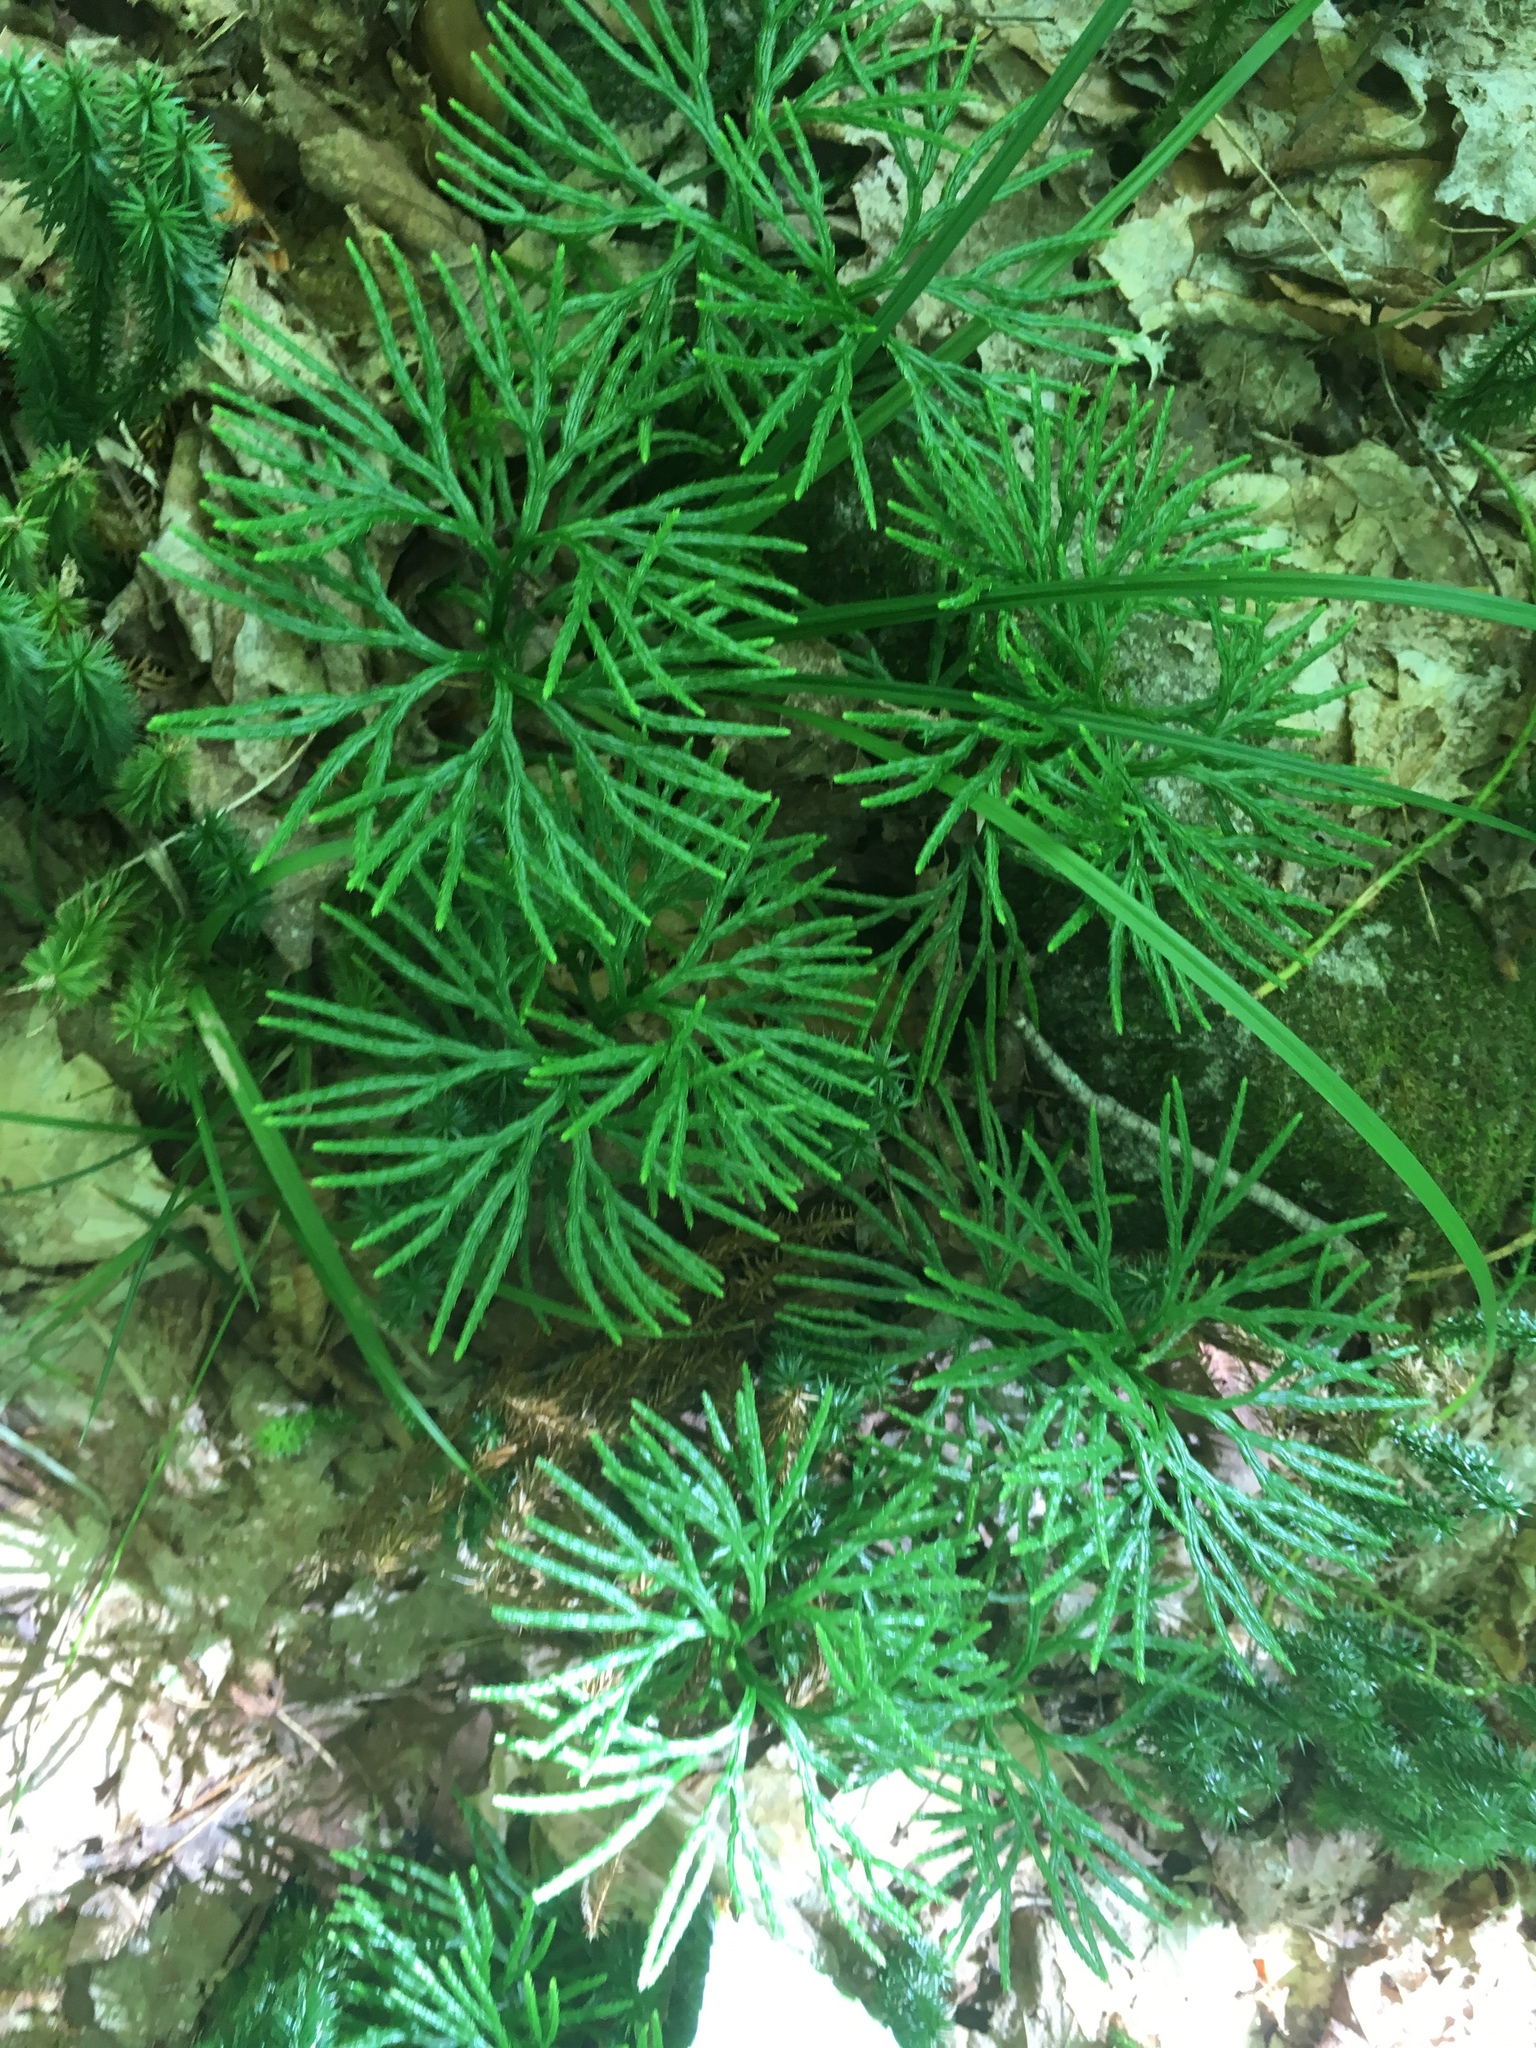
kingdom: Plantae
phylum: Tracheophyta
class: Lycopodiopsida
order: Lycopodiales
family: Lycopodiaceae
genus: Diphasiastrum
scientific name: Diphasiastrum digitatum
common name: Southern running-pine
